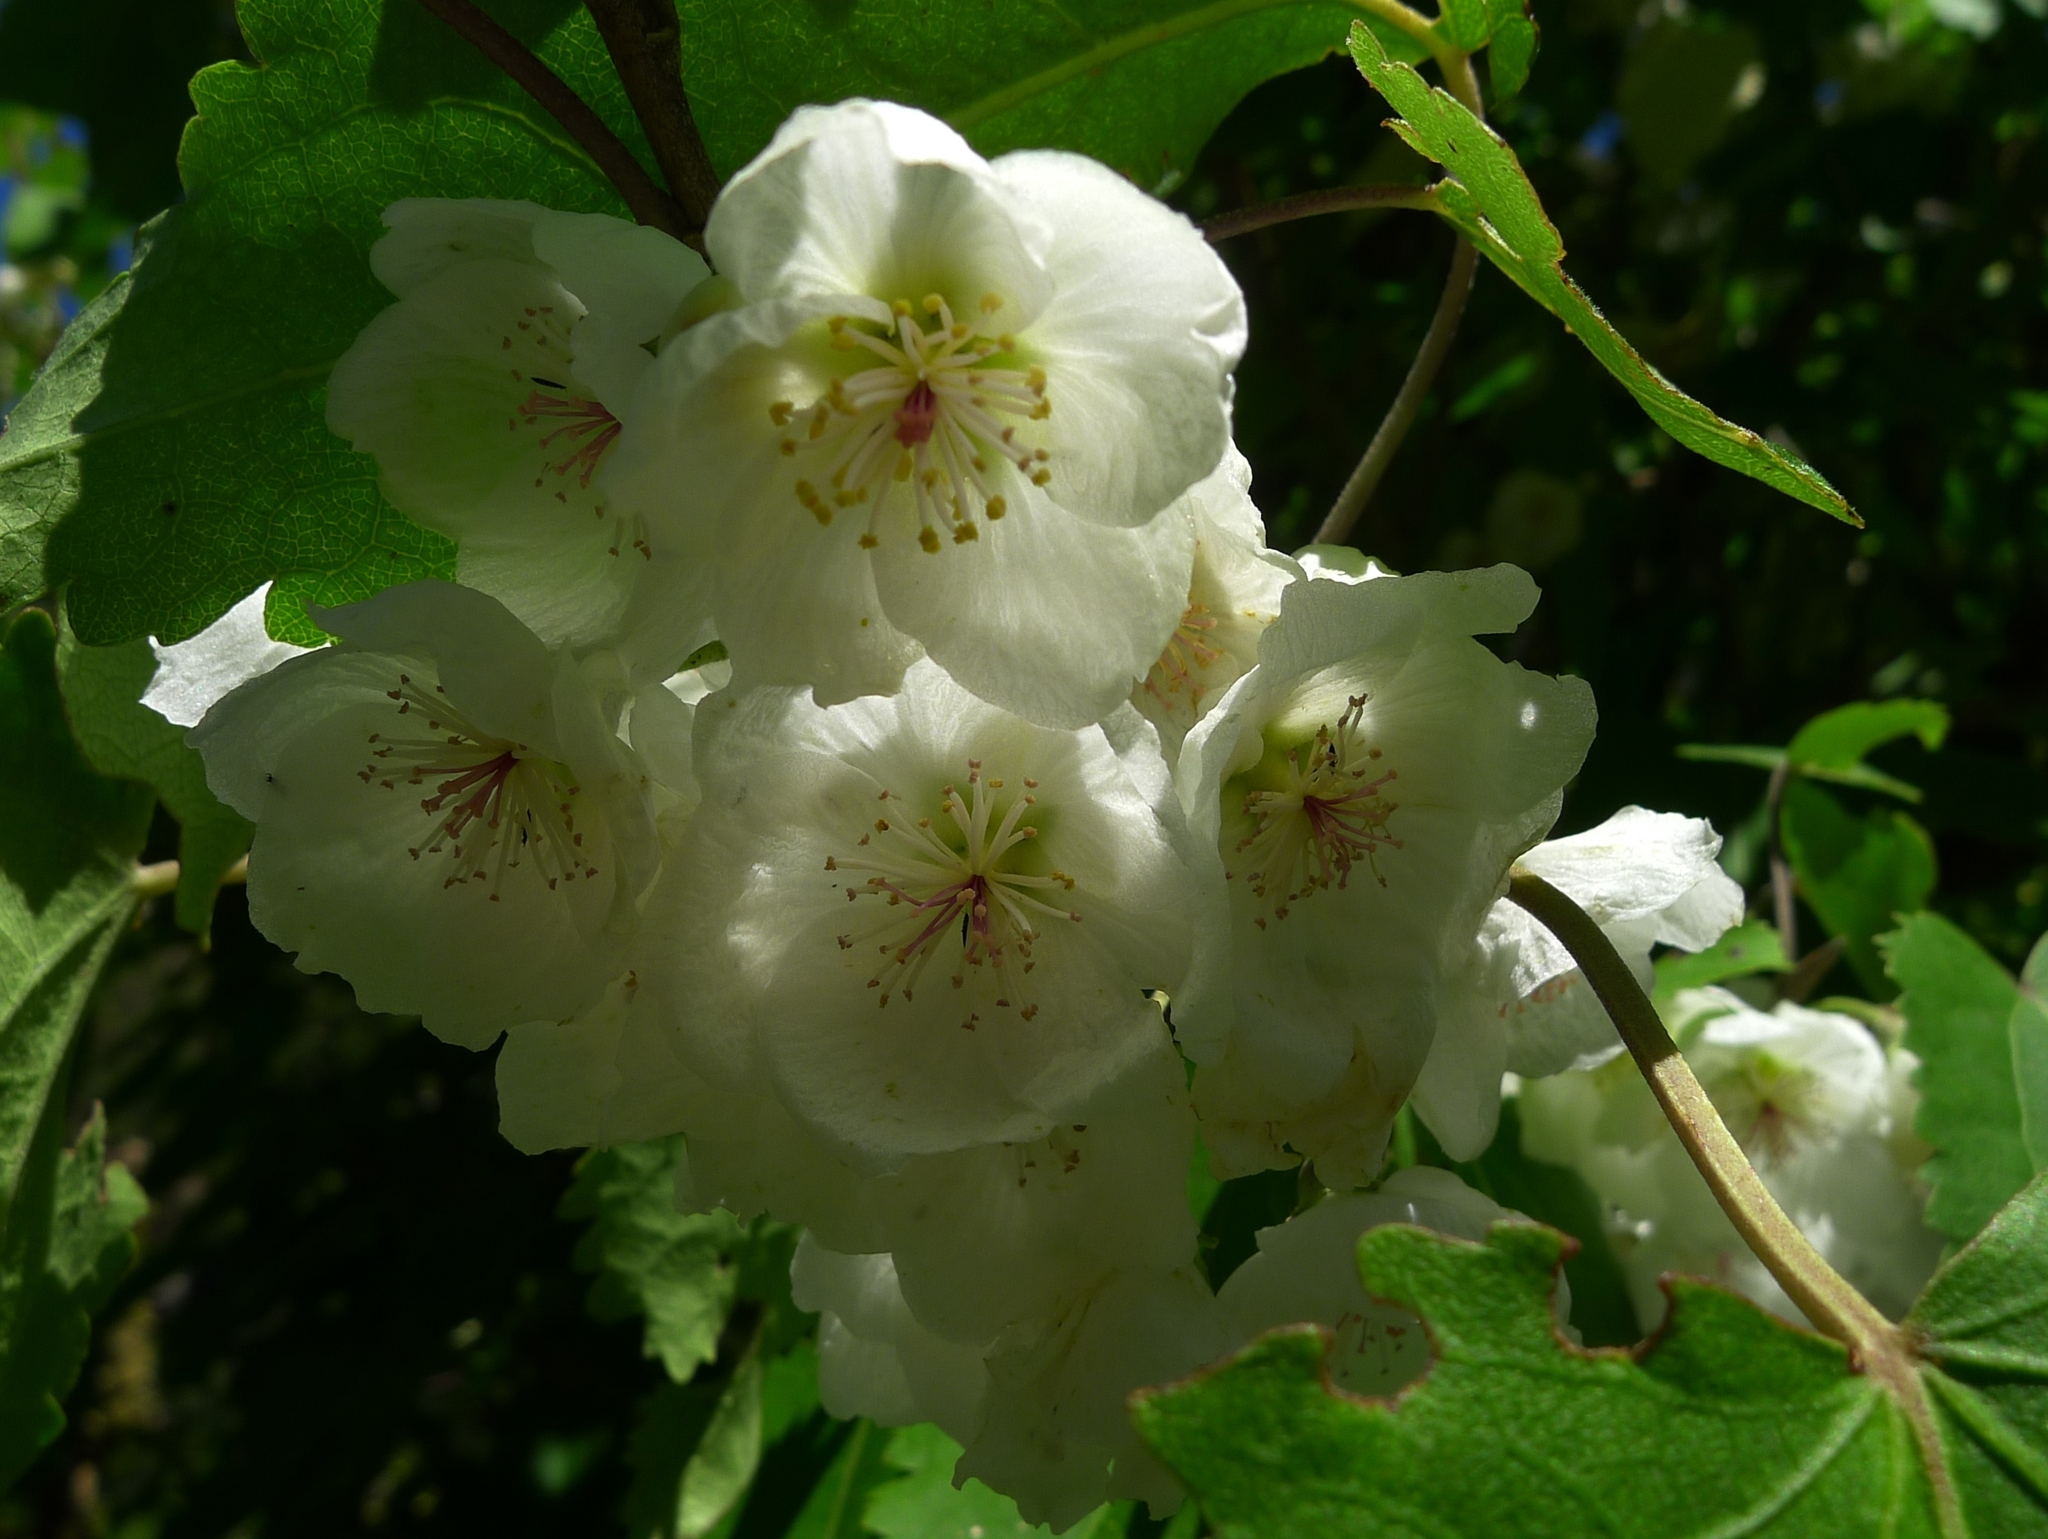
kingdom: Plantae
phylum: Tracheophyta
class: Magnoliopsida
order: Malvales
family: Malvaceae
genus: Hoheria
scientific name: Hoheria glabrata
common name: Mountain-ribbon
